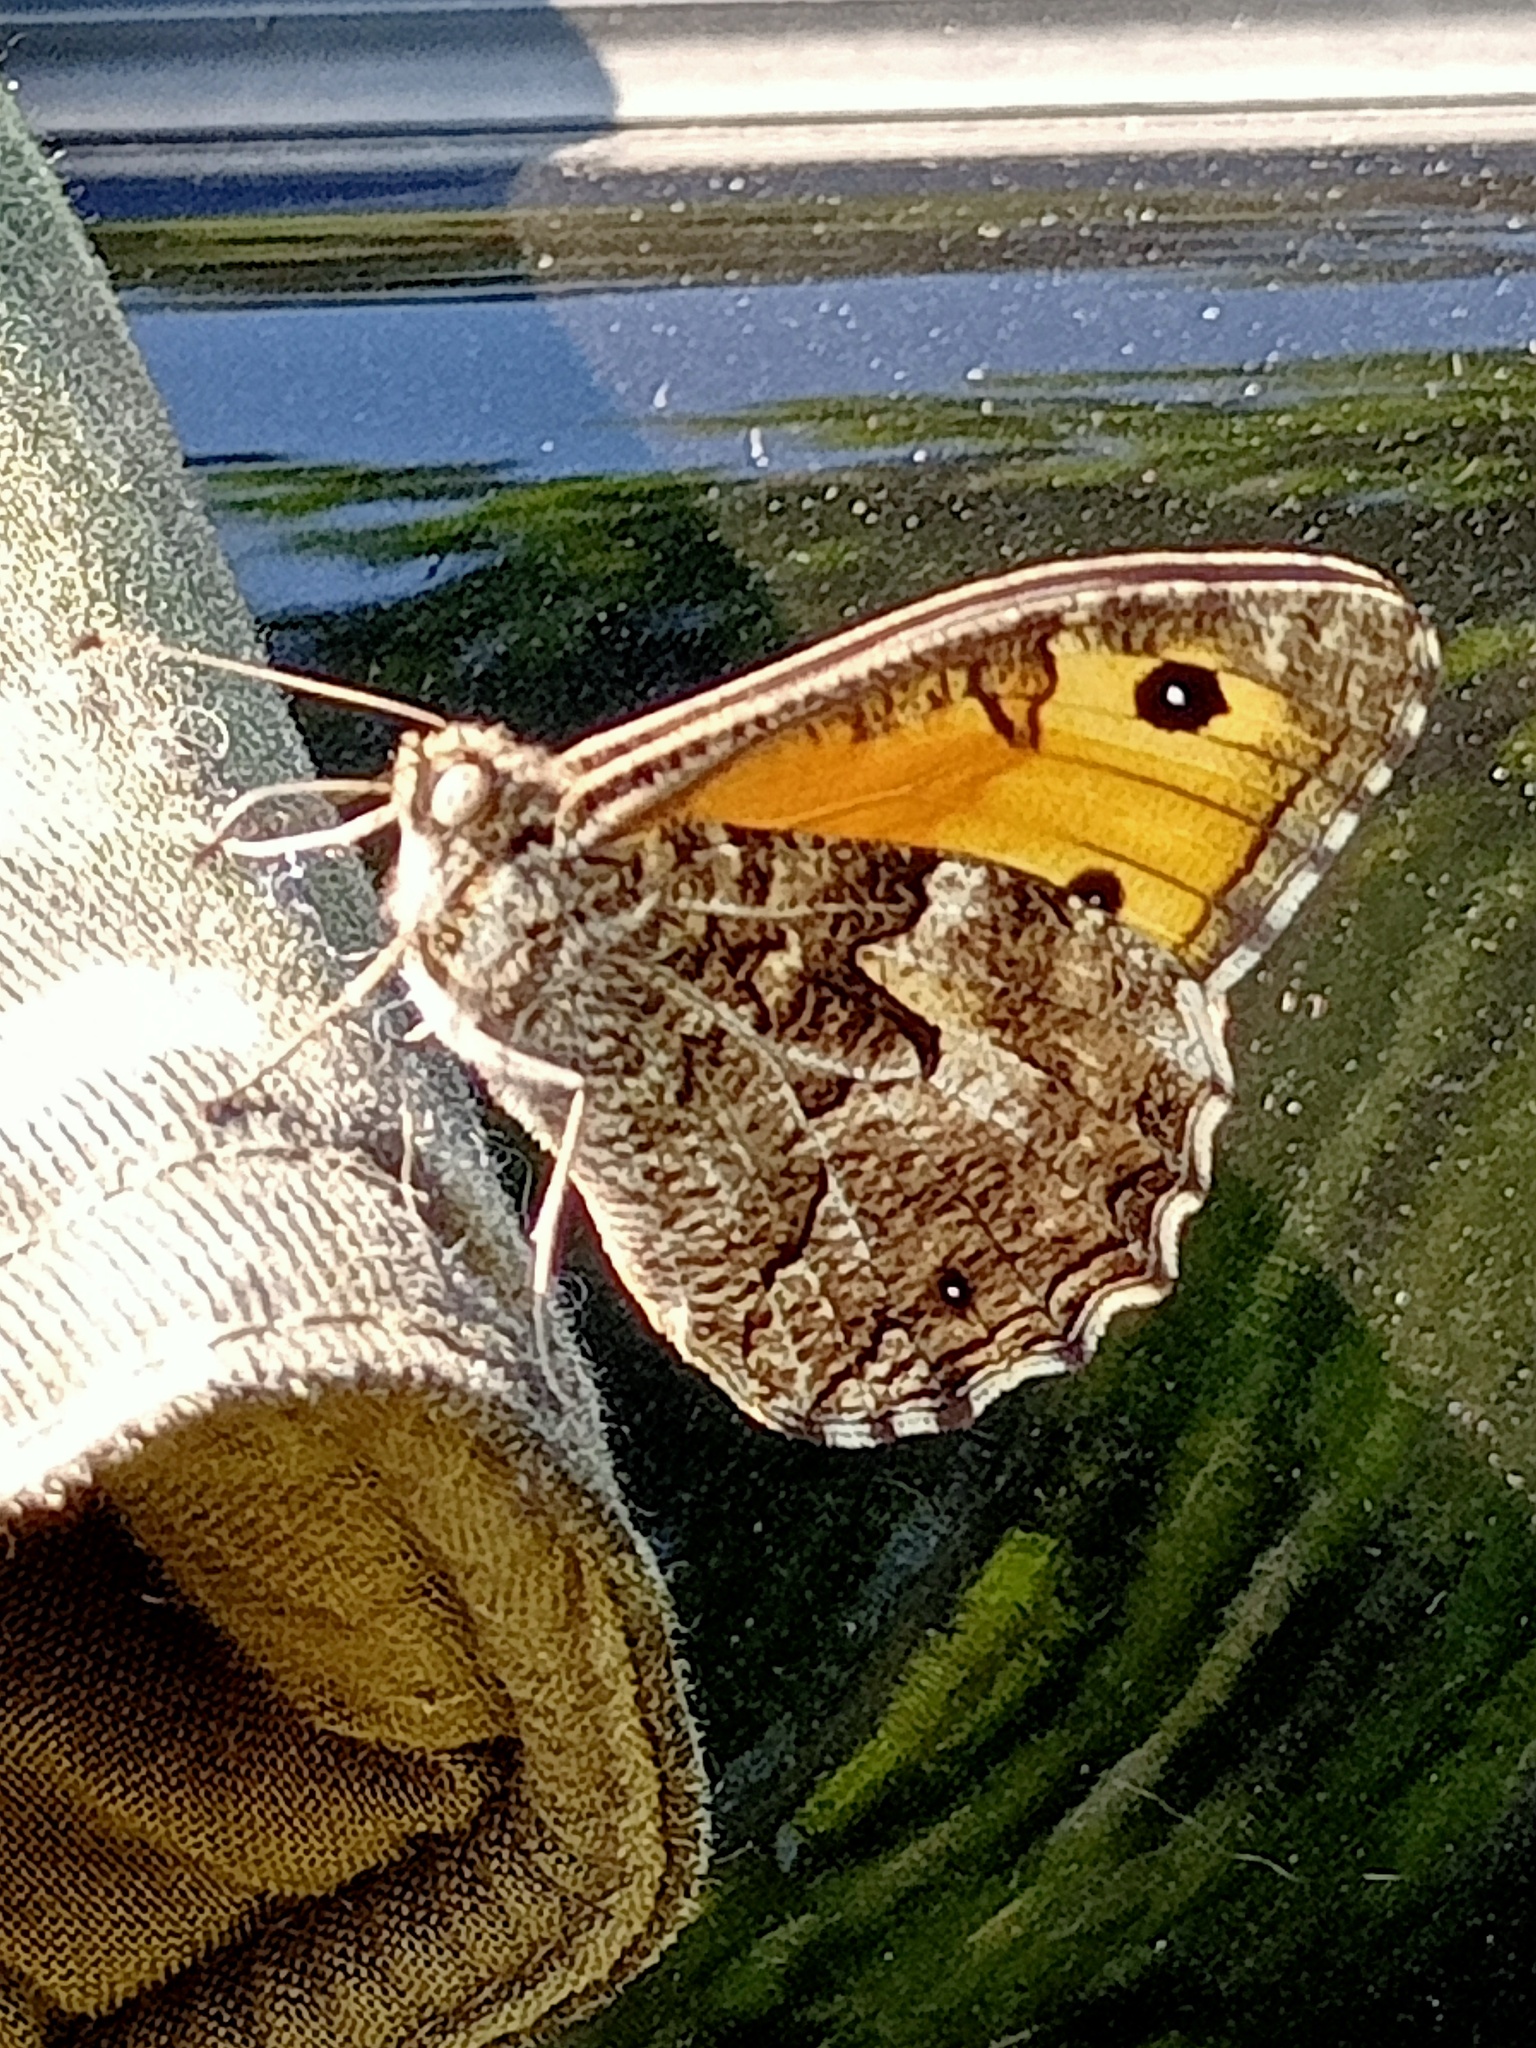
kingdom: Animalia
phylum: Arthropoda
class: Insecta
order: Lepidoptera
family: Nymphalidae
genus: Hipparchia
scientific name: Hipparchia semele
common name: Grayling
